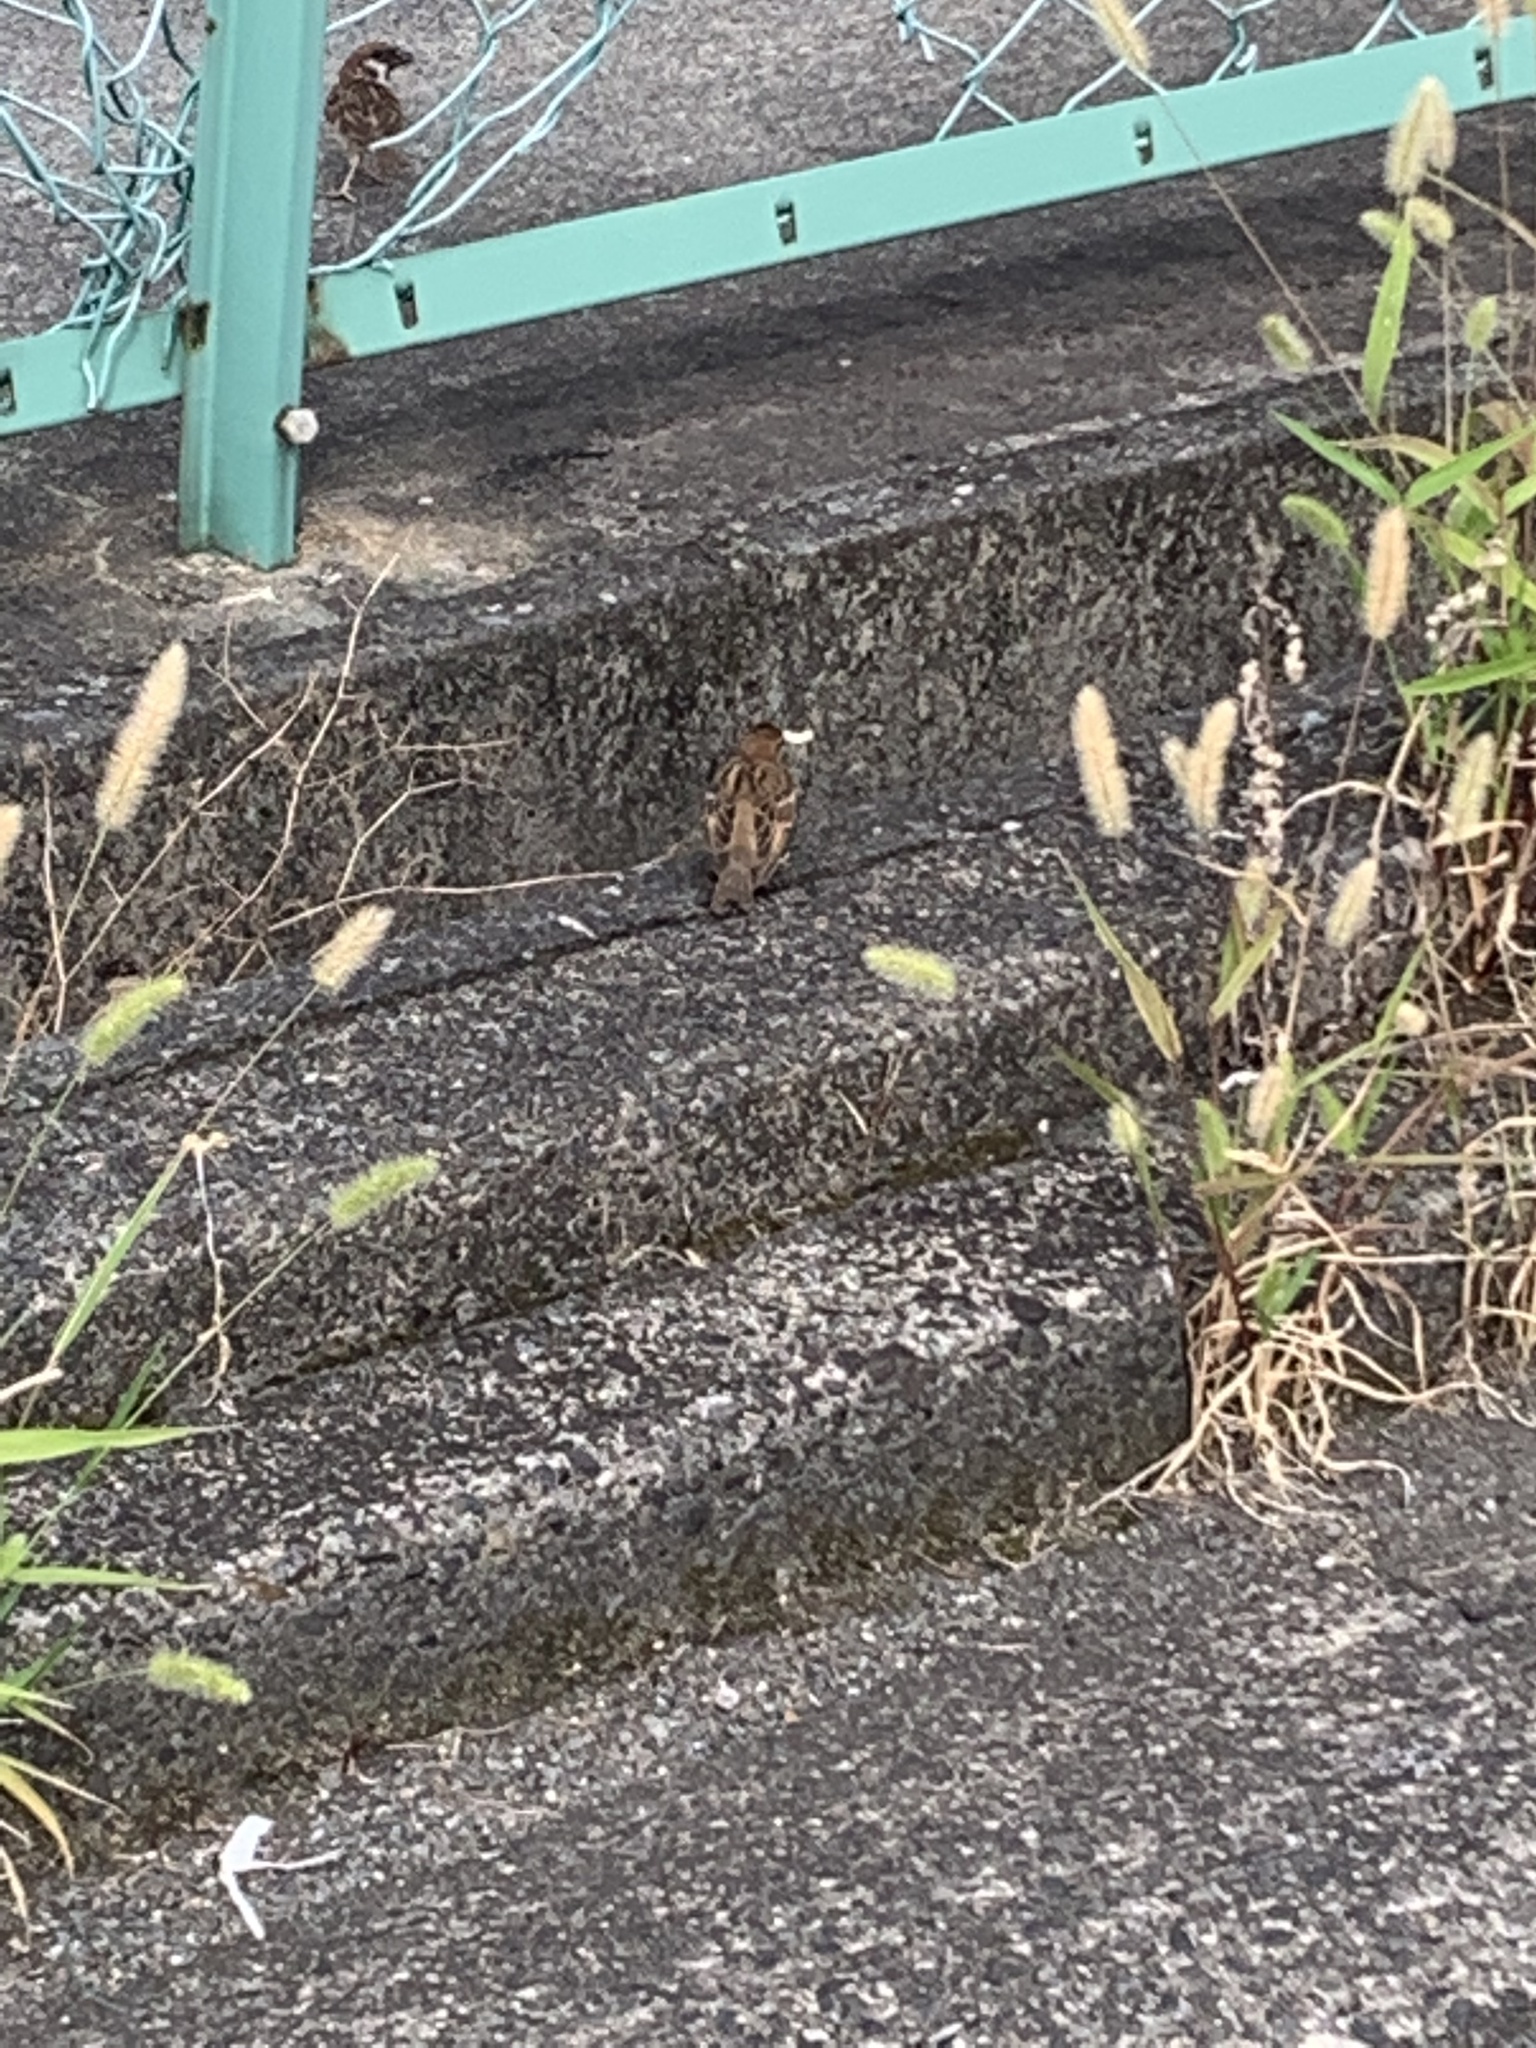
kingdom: Animalia
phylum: Chordata
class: Aves
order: Passeriformes
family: Passeridae
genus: Passer
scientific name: Passer montanus
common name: Eurasian tree sparrow
